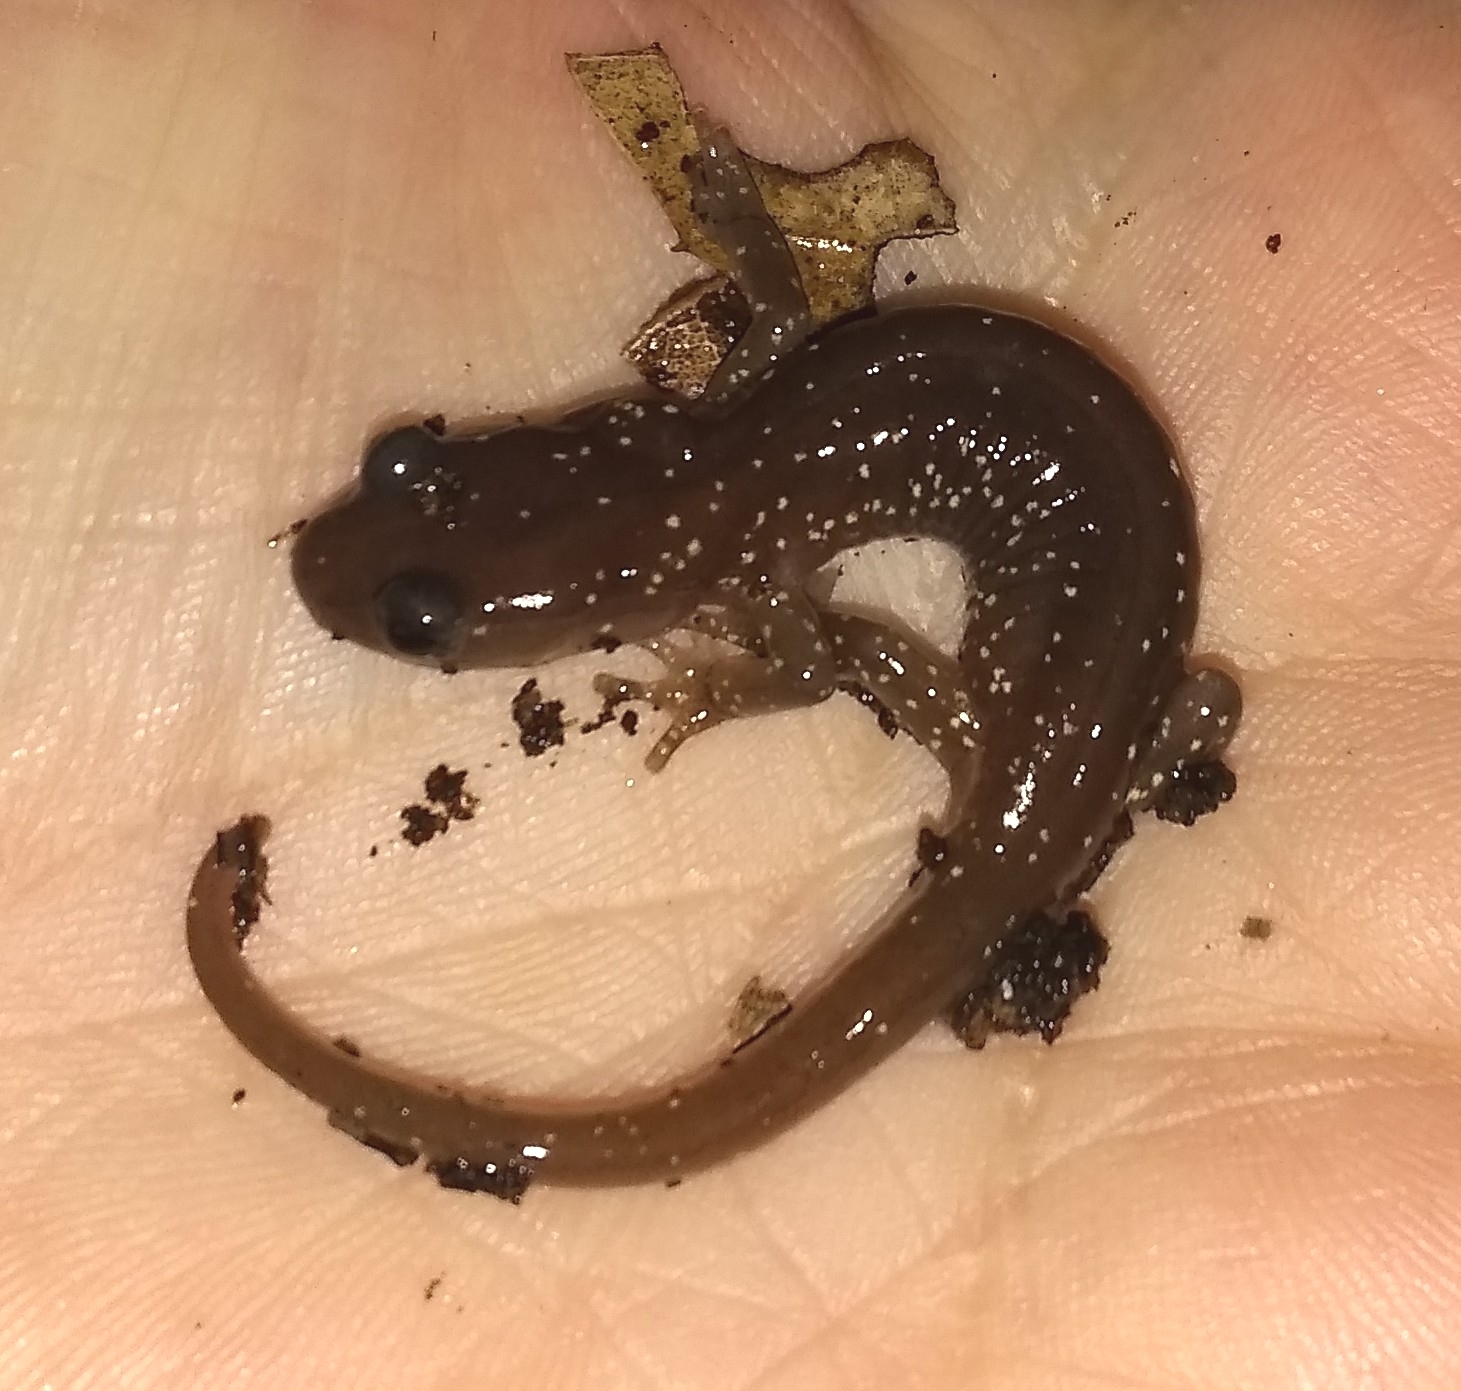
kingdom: Animalia
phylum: Chordata
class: Amphibia
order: Caudata
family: Plethodontidae
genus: Aneides
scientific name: Aneides lugubris
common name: Arboreal salamander
